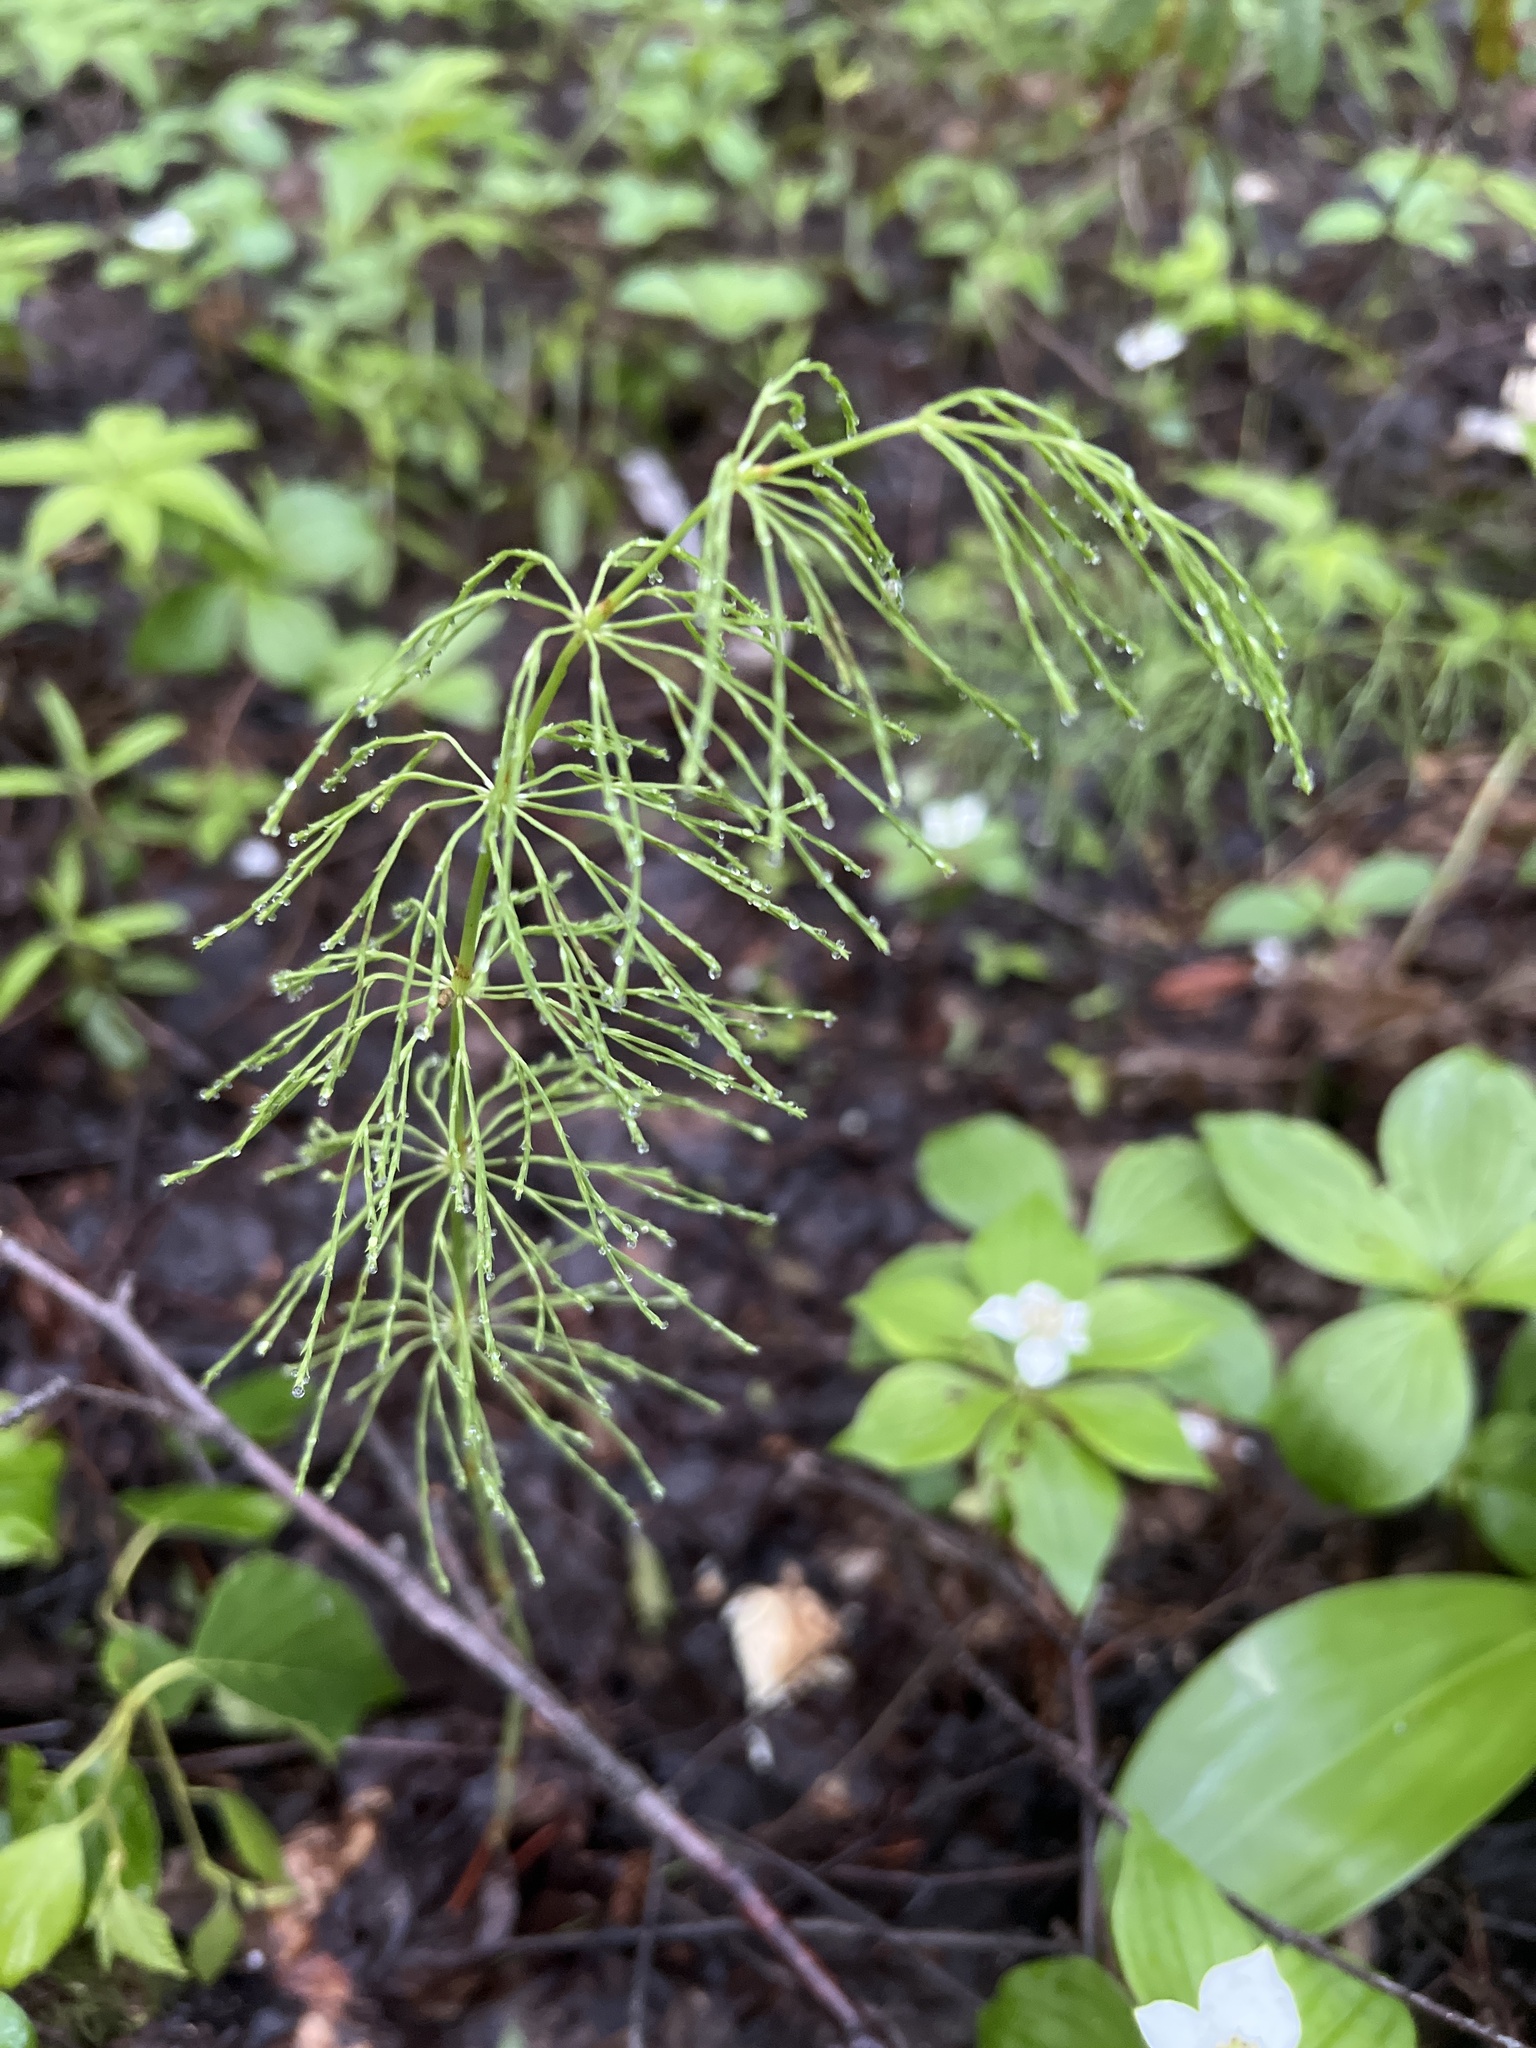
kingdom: Plantae
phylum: Tracheophyta
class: Polypodiopsida
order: Equisetales
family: Equisetaceae
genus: Equisetum
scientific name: Equisetum sylvaticum
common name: Wood horsetail
